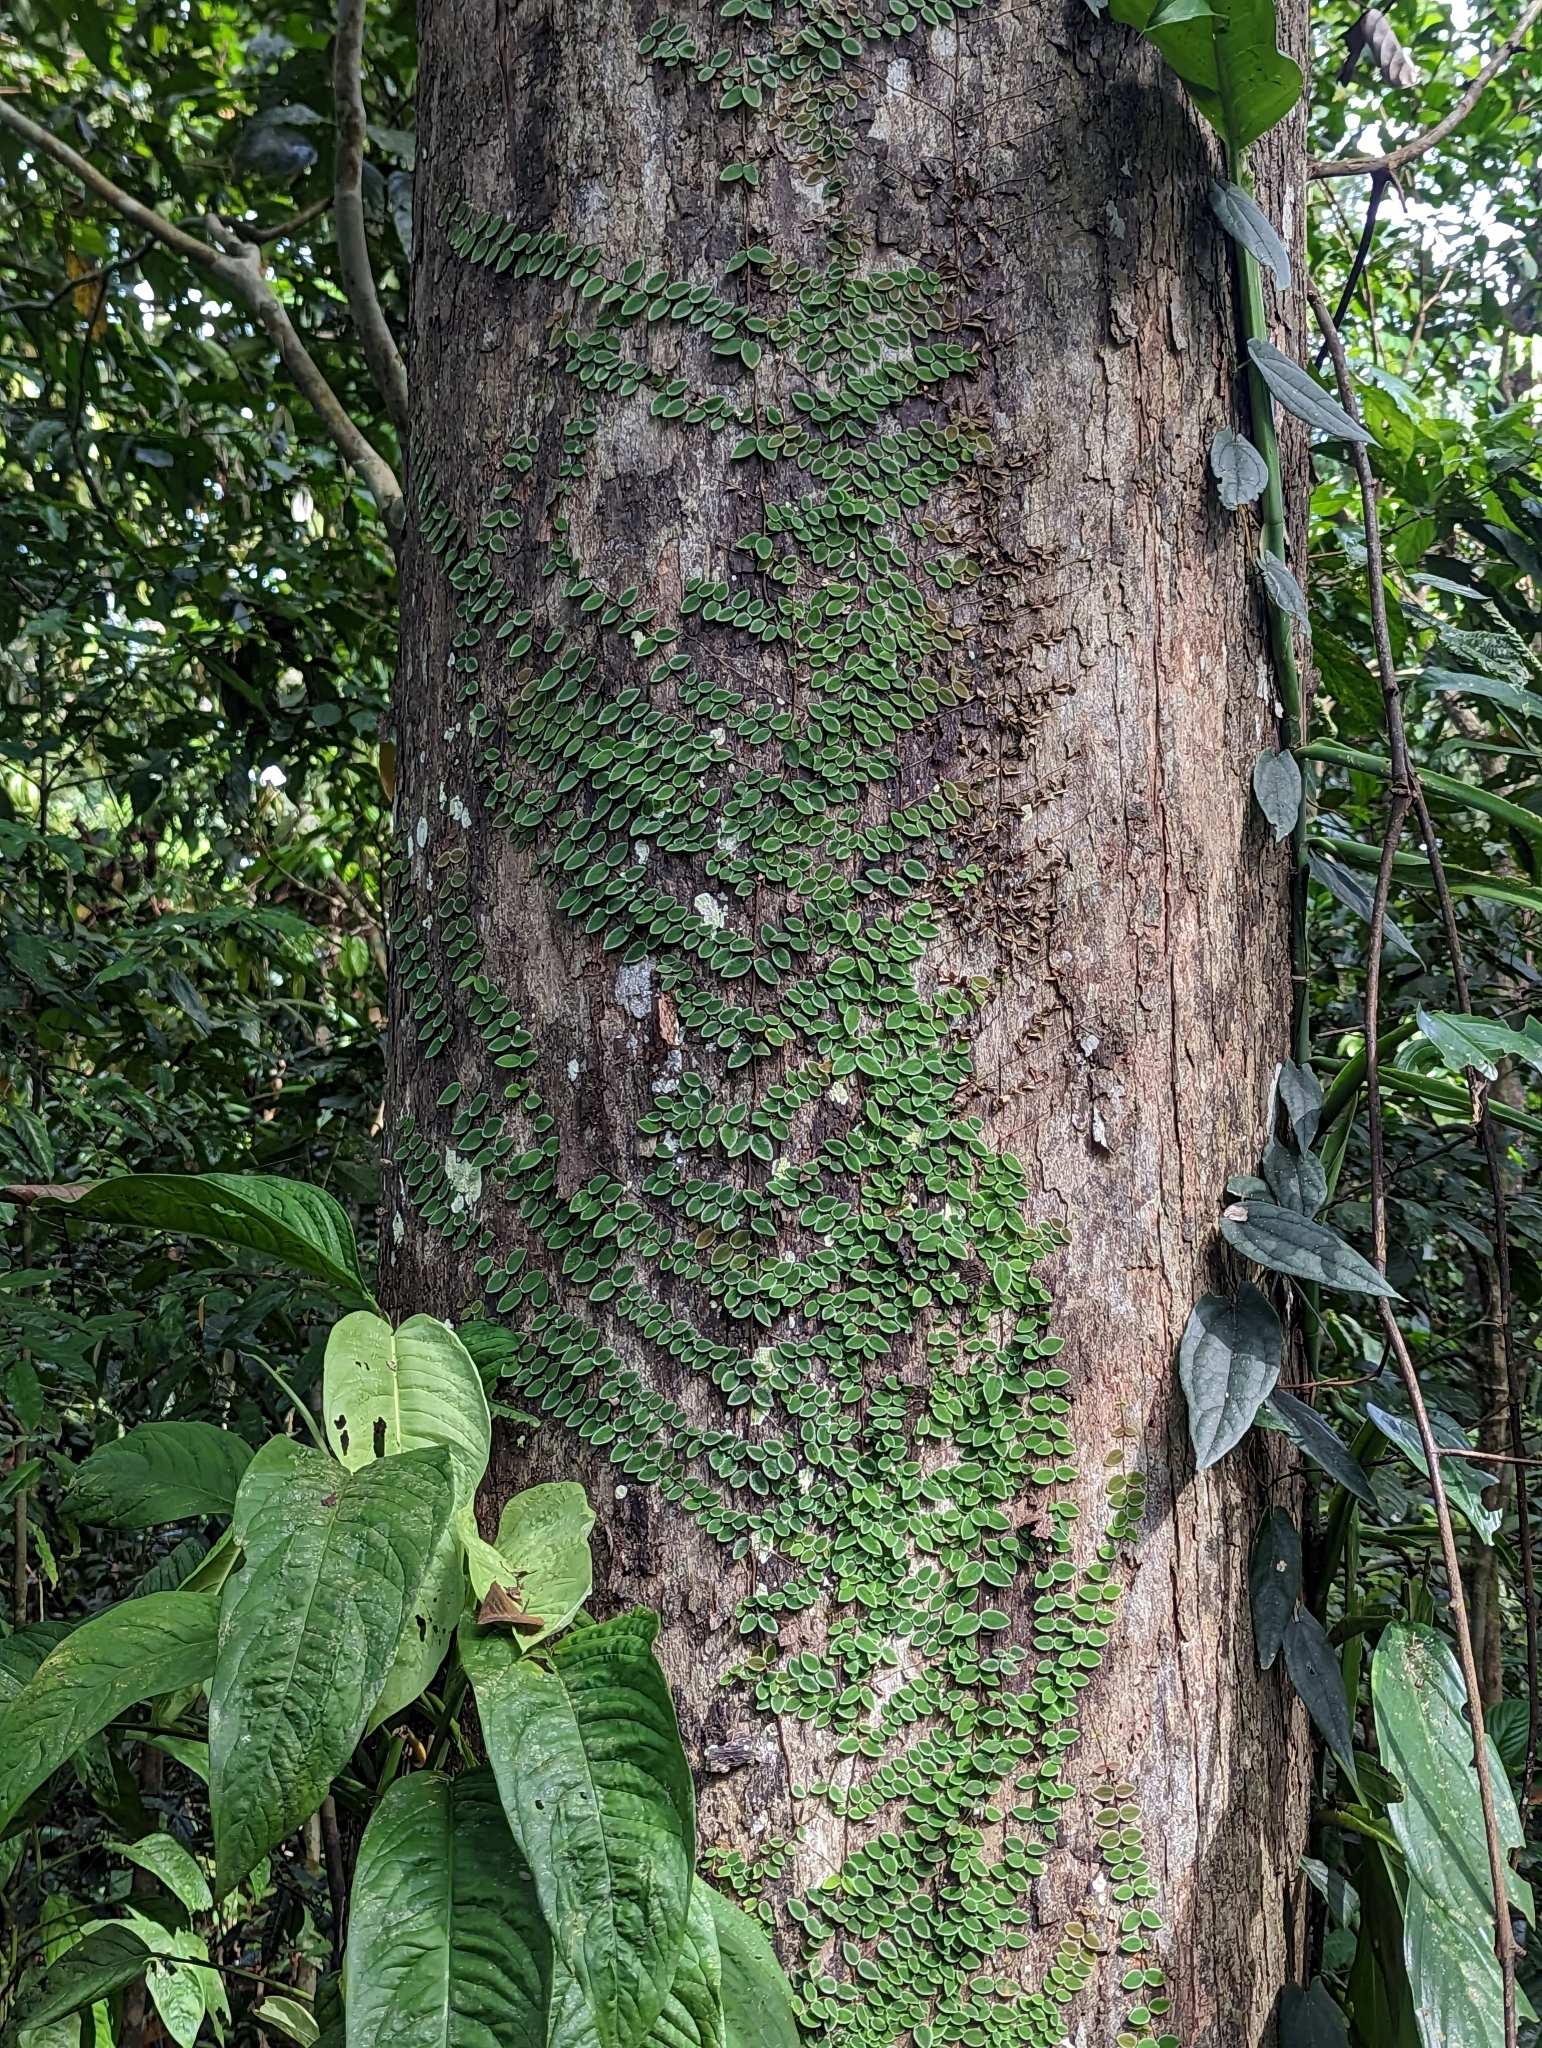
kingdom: Plantae
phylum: Tracheophyta
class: Magnoliopsida
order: Gentianales
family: Apocynaceae
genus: Micrechites
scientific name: Micrechites serpyllifolia
